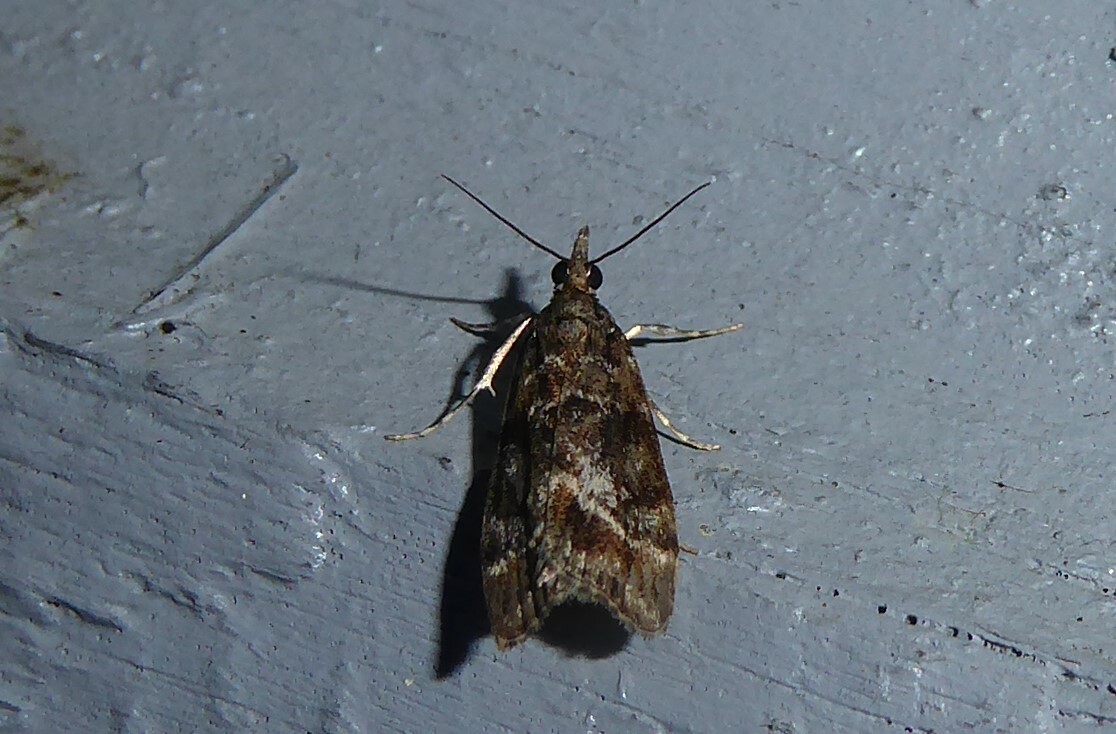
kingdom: Animalia
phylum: Arthropoda
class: Insecta
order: Lepidoptera
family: Crambidae
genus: Eudonia
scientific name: Eudonia legnota
